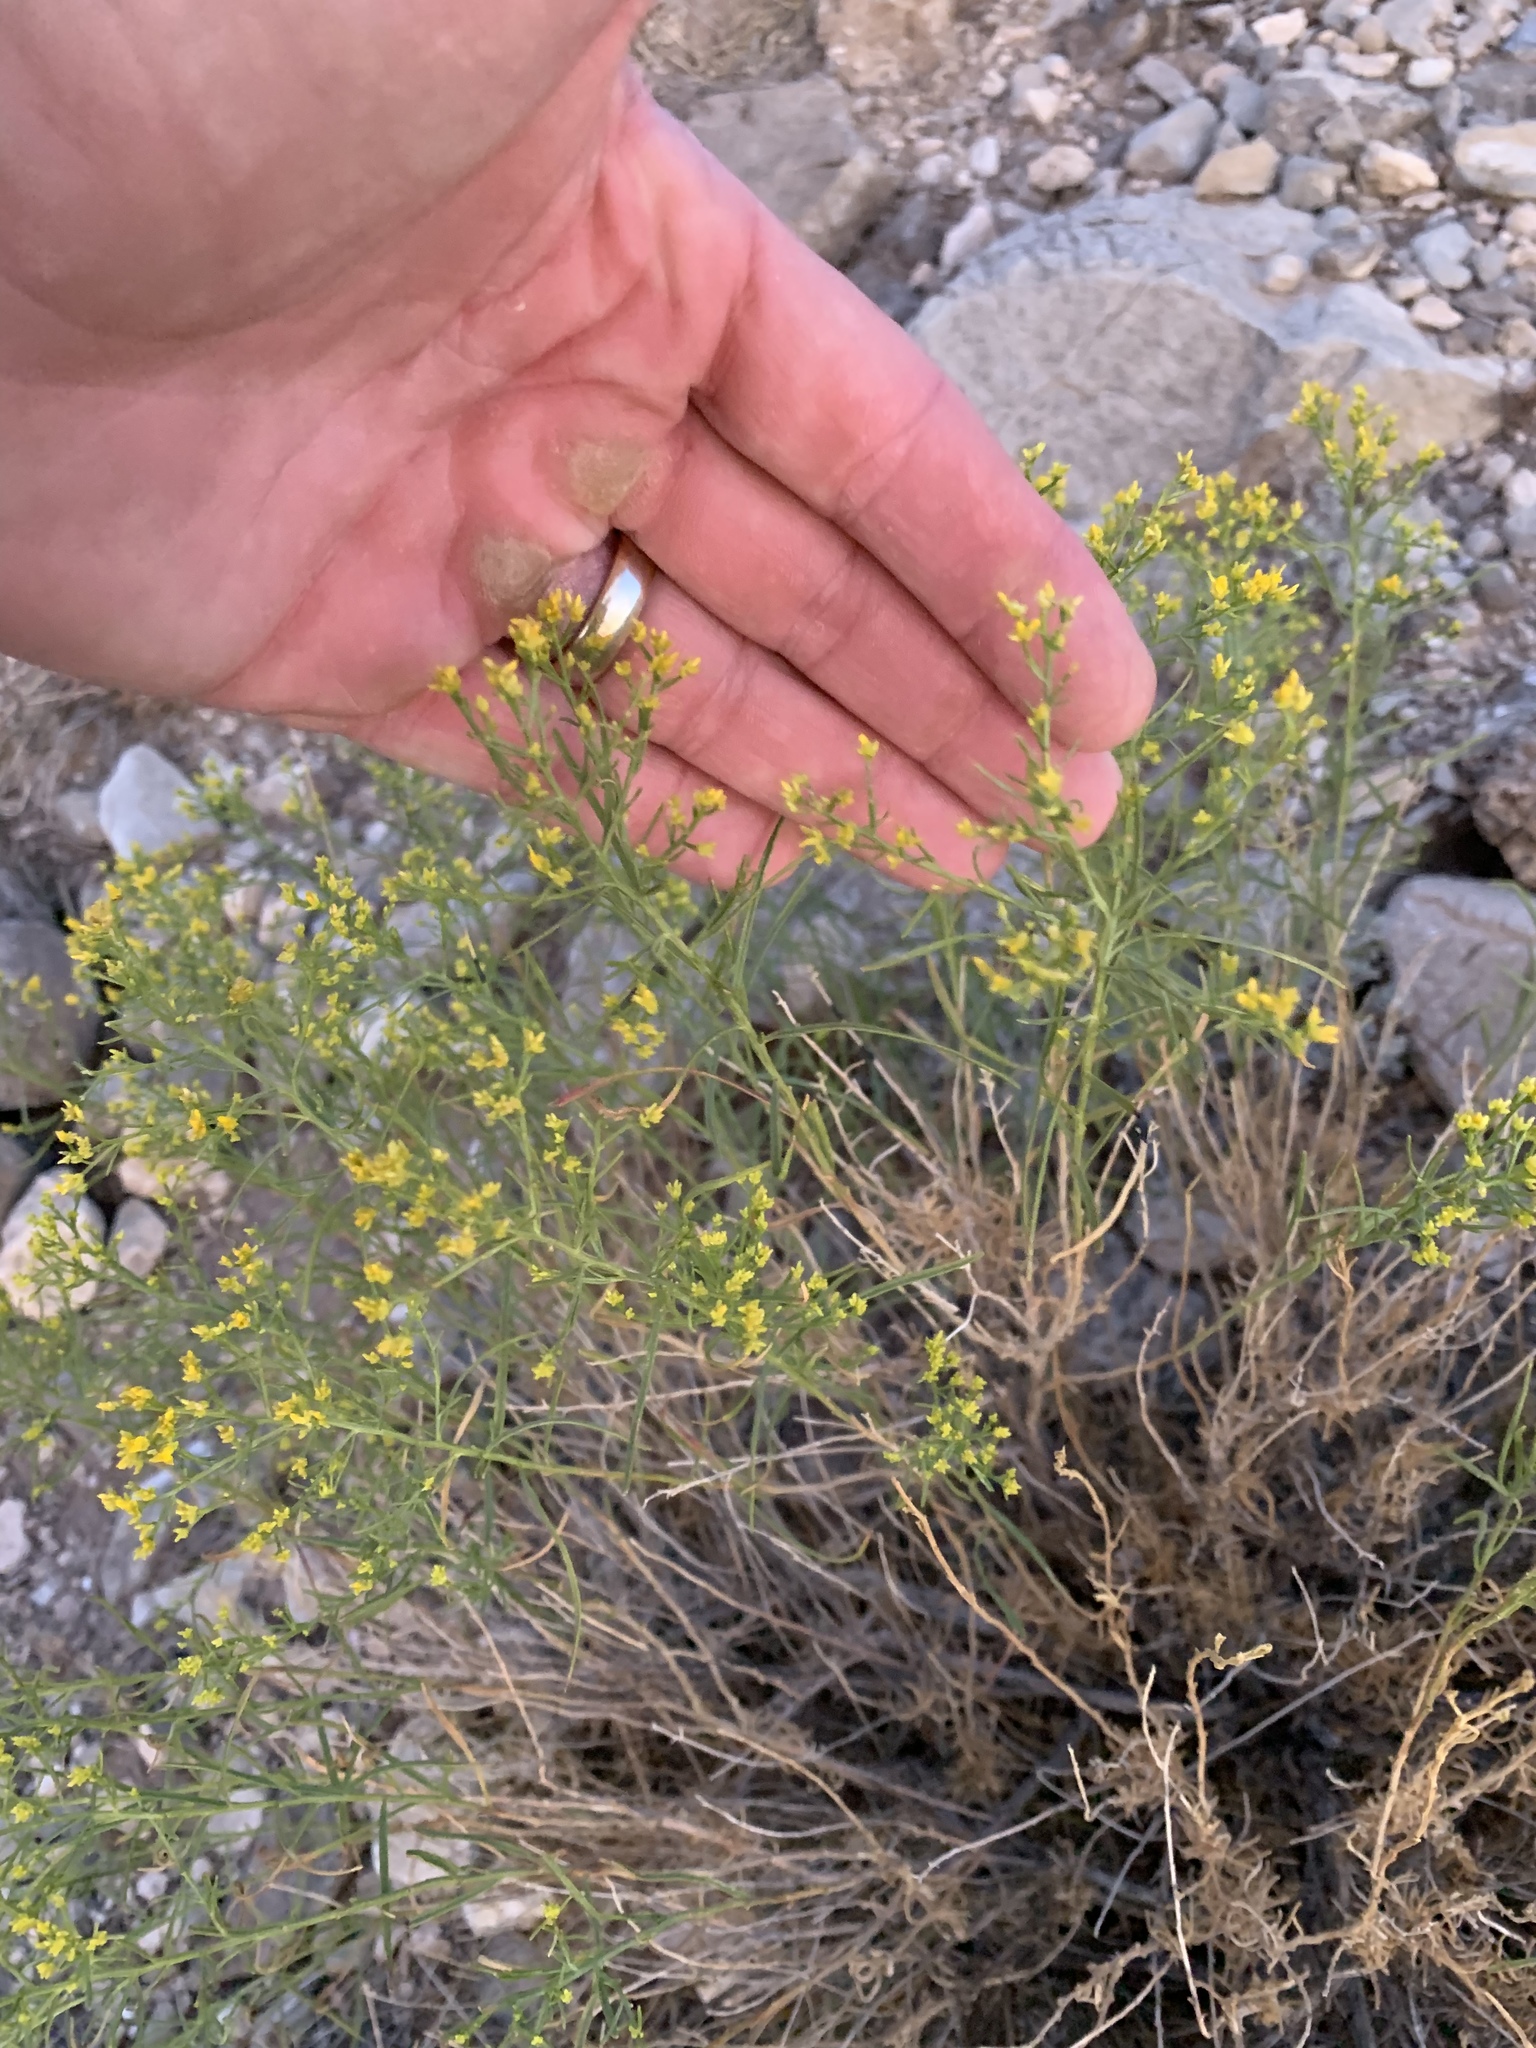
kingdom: Plantae
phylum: Tracheophyta
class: Magnoliopsida
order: Asterales
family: Asteraceae
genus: Gutierrezia
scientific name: Gutierrezia sarothrae
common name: Broom snakeweed
